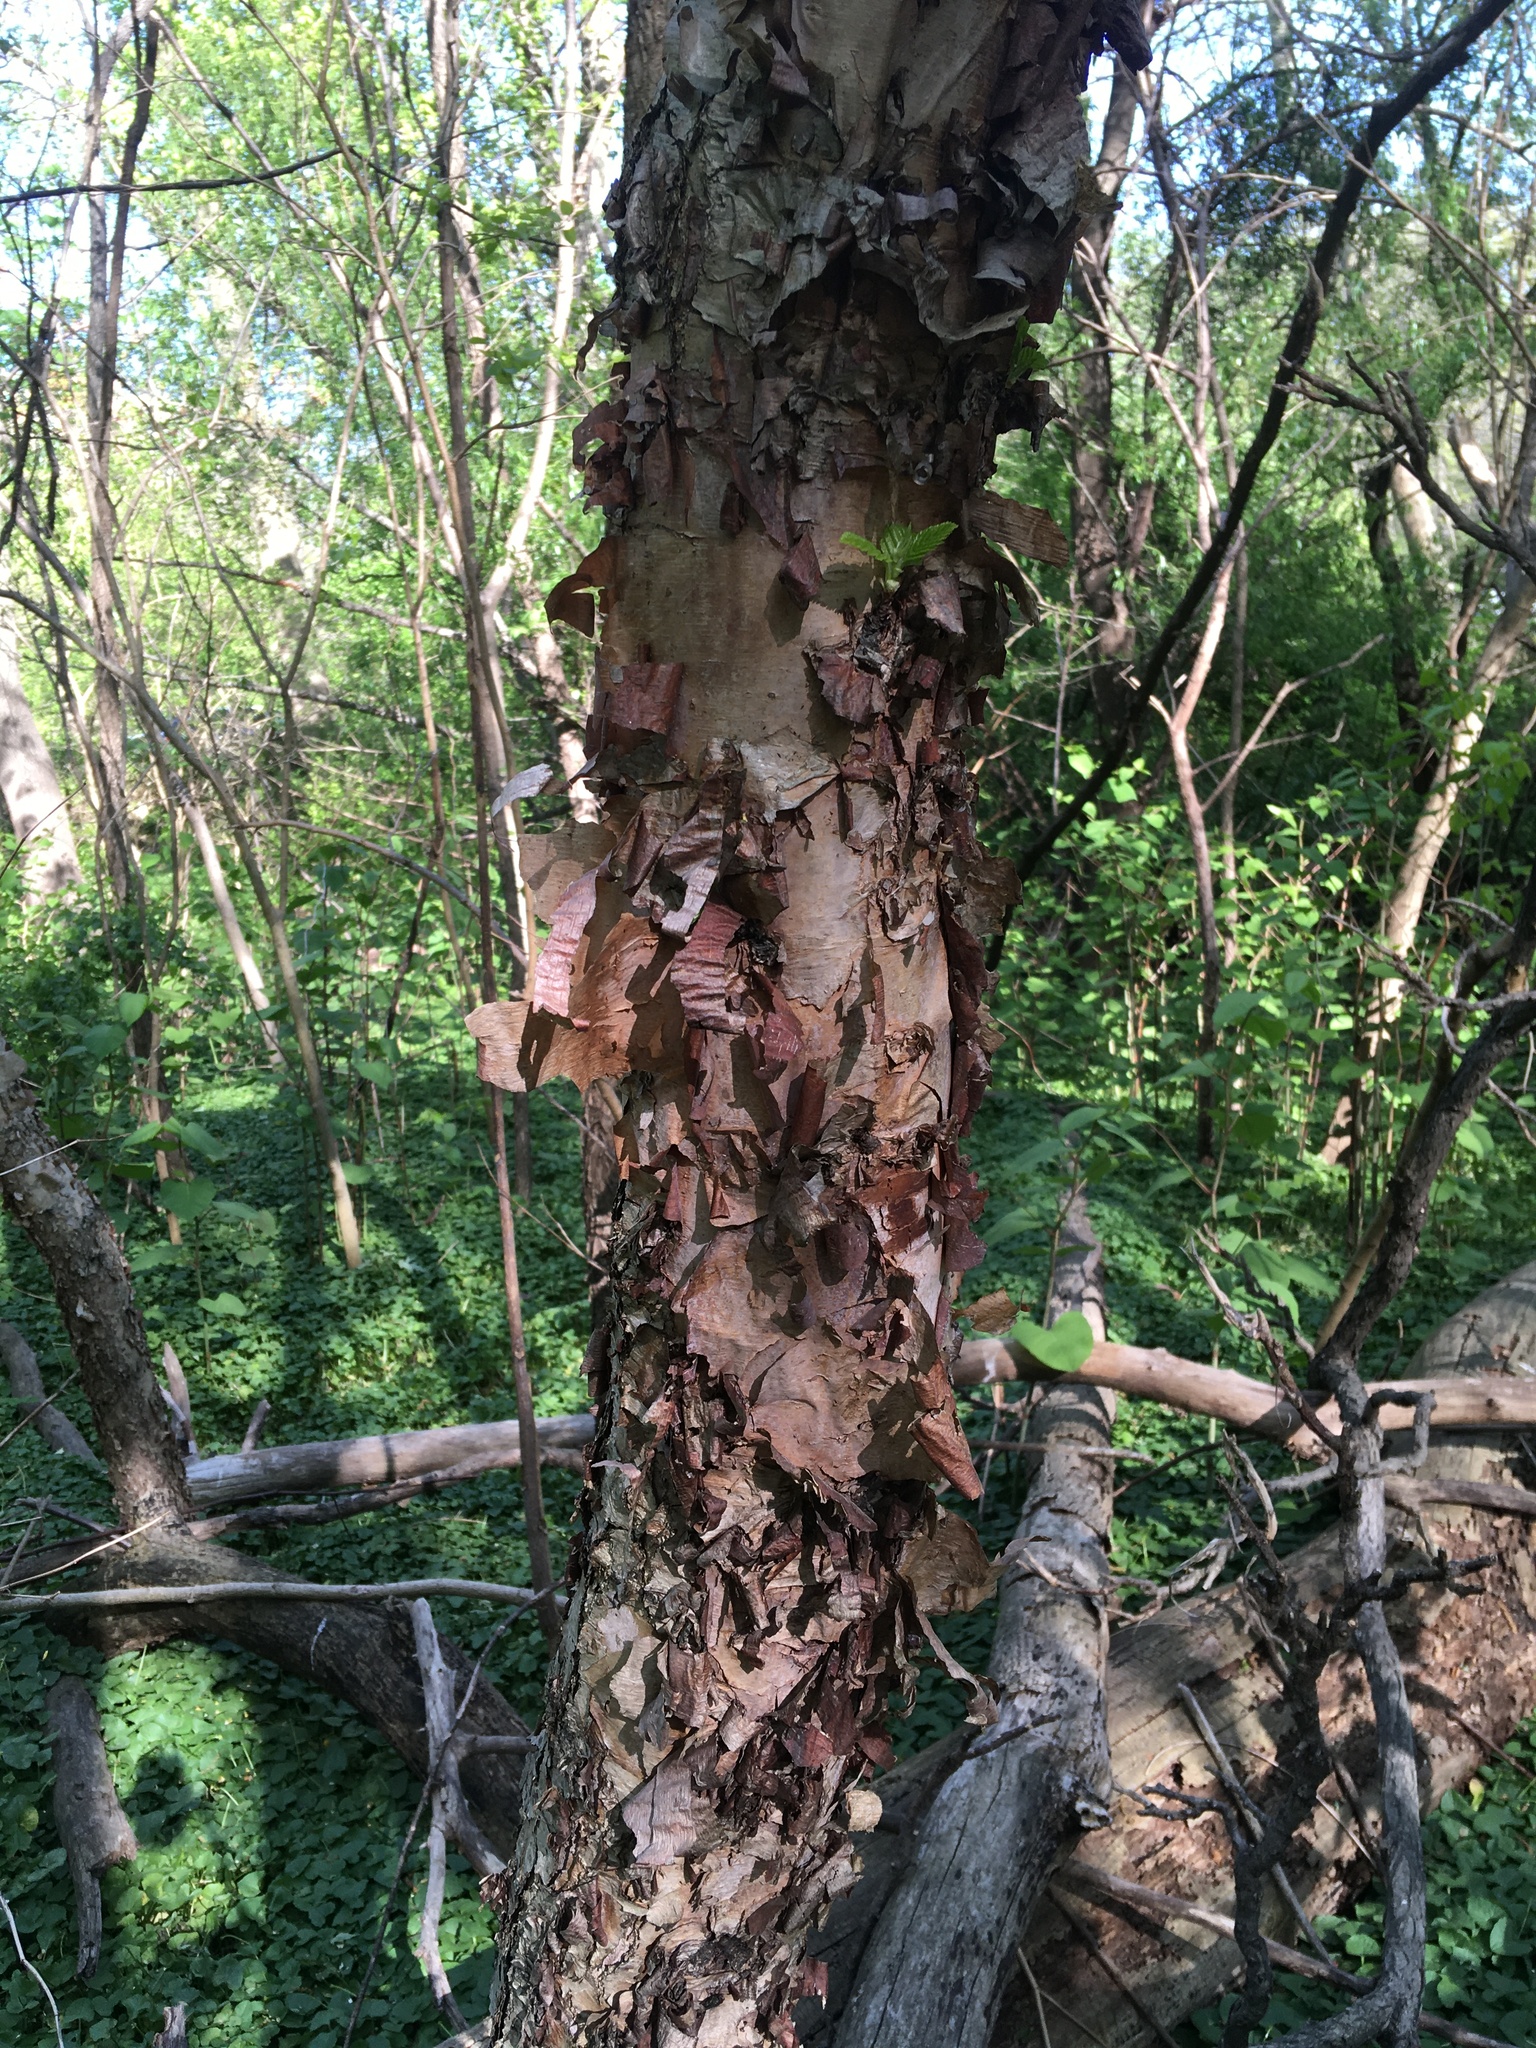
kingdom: Plantae
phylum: Tracheophyta
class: Magnoliopsida
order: Fagales
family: Betulaceae
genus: Betula
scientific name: Betula nigra
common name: Black birch
